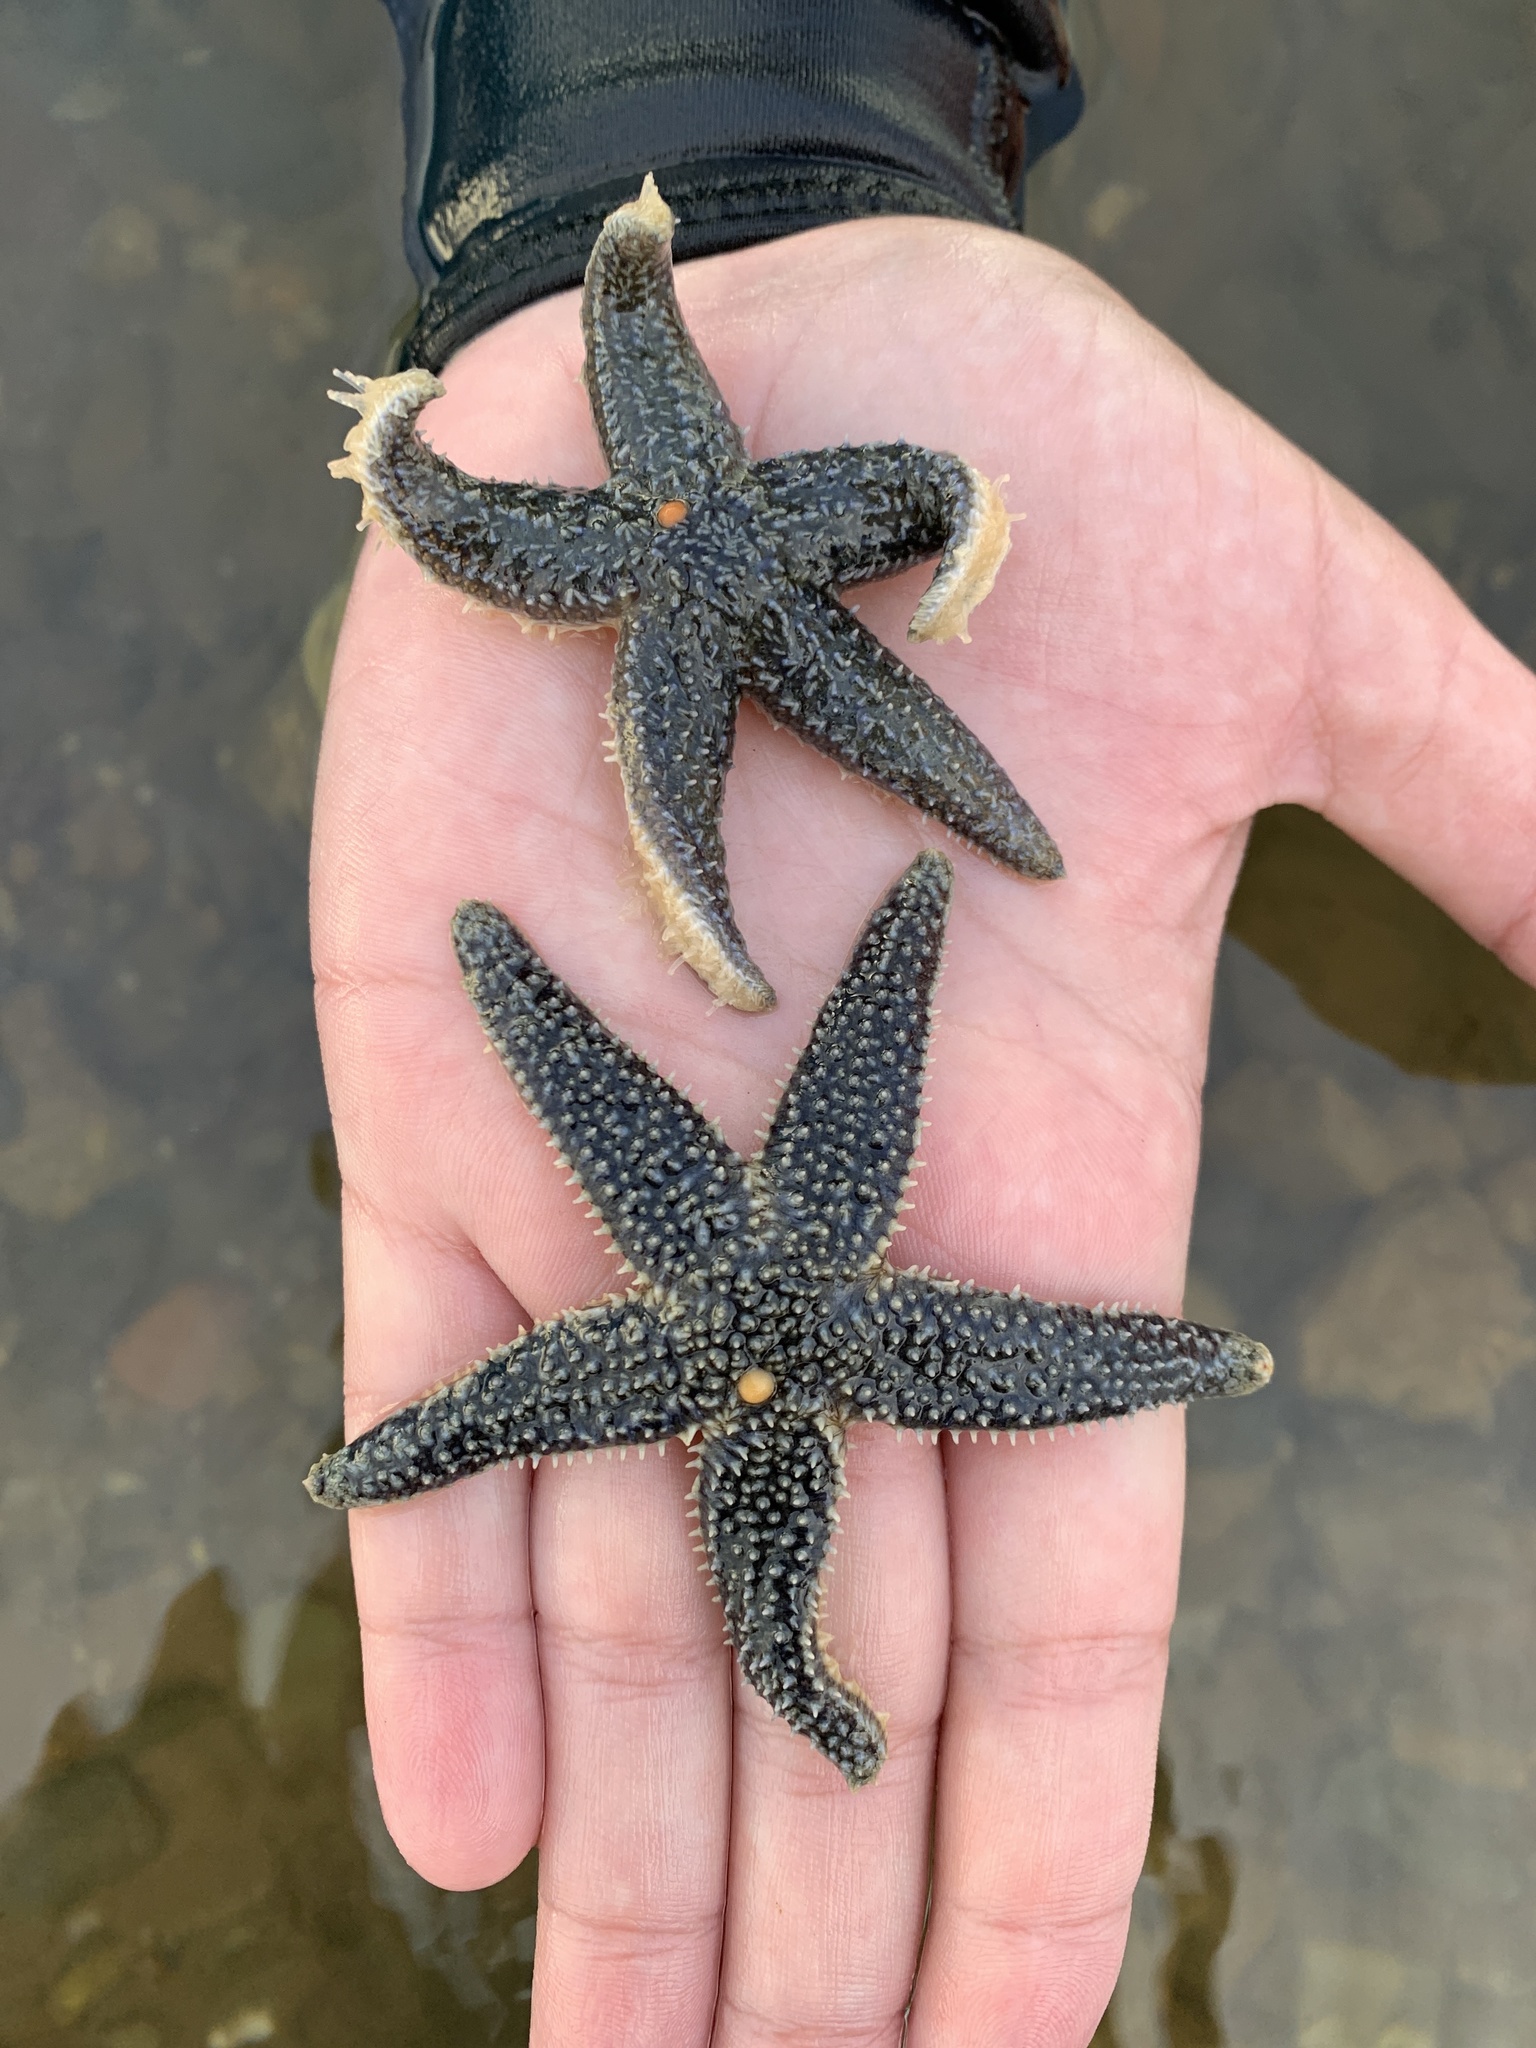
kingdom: Animalia
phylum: Echinodermata
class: Asteroidea
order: Forcipulatida
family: Asteriidae
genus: Asterias
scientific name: Asterias forbesi
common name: Forbes's sea star
